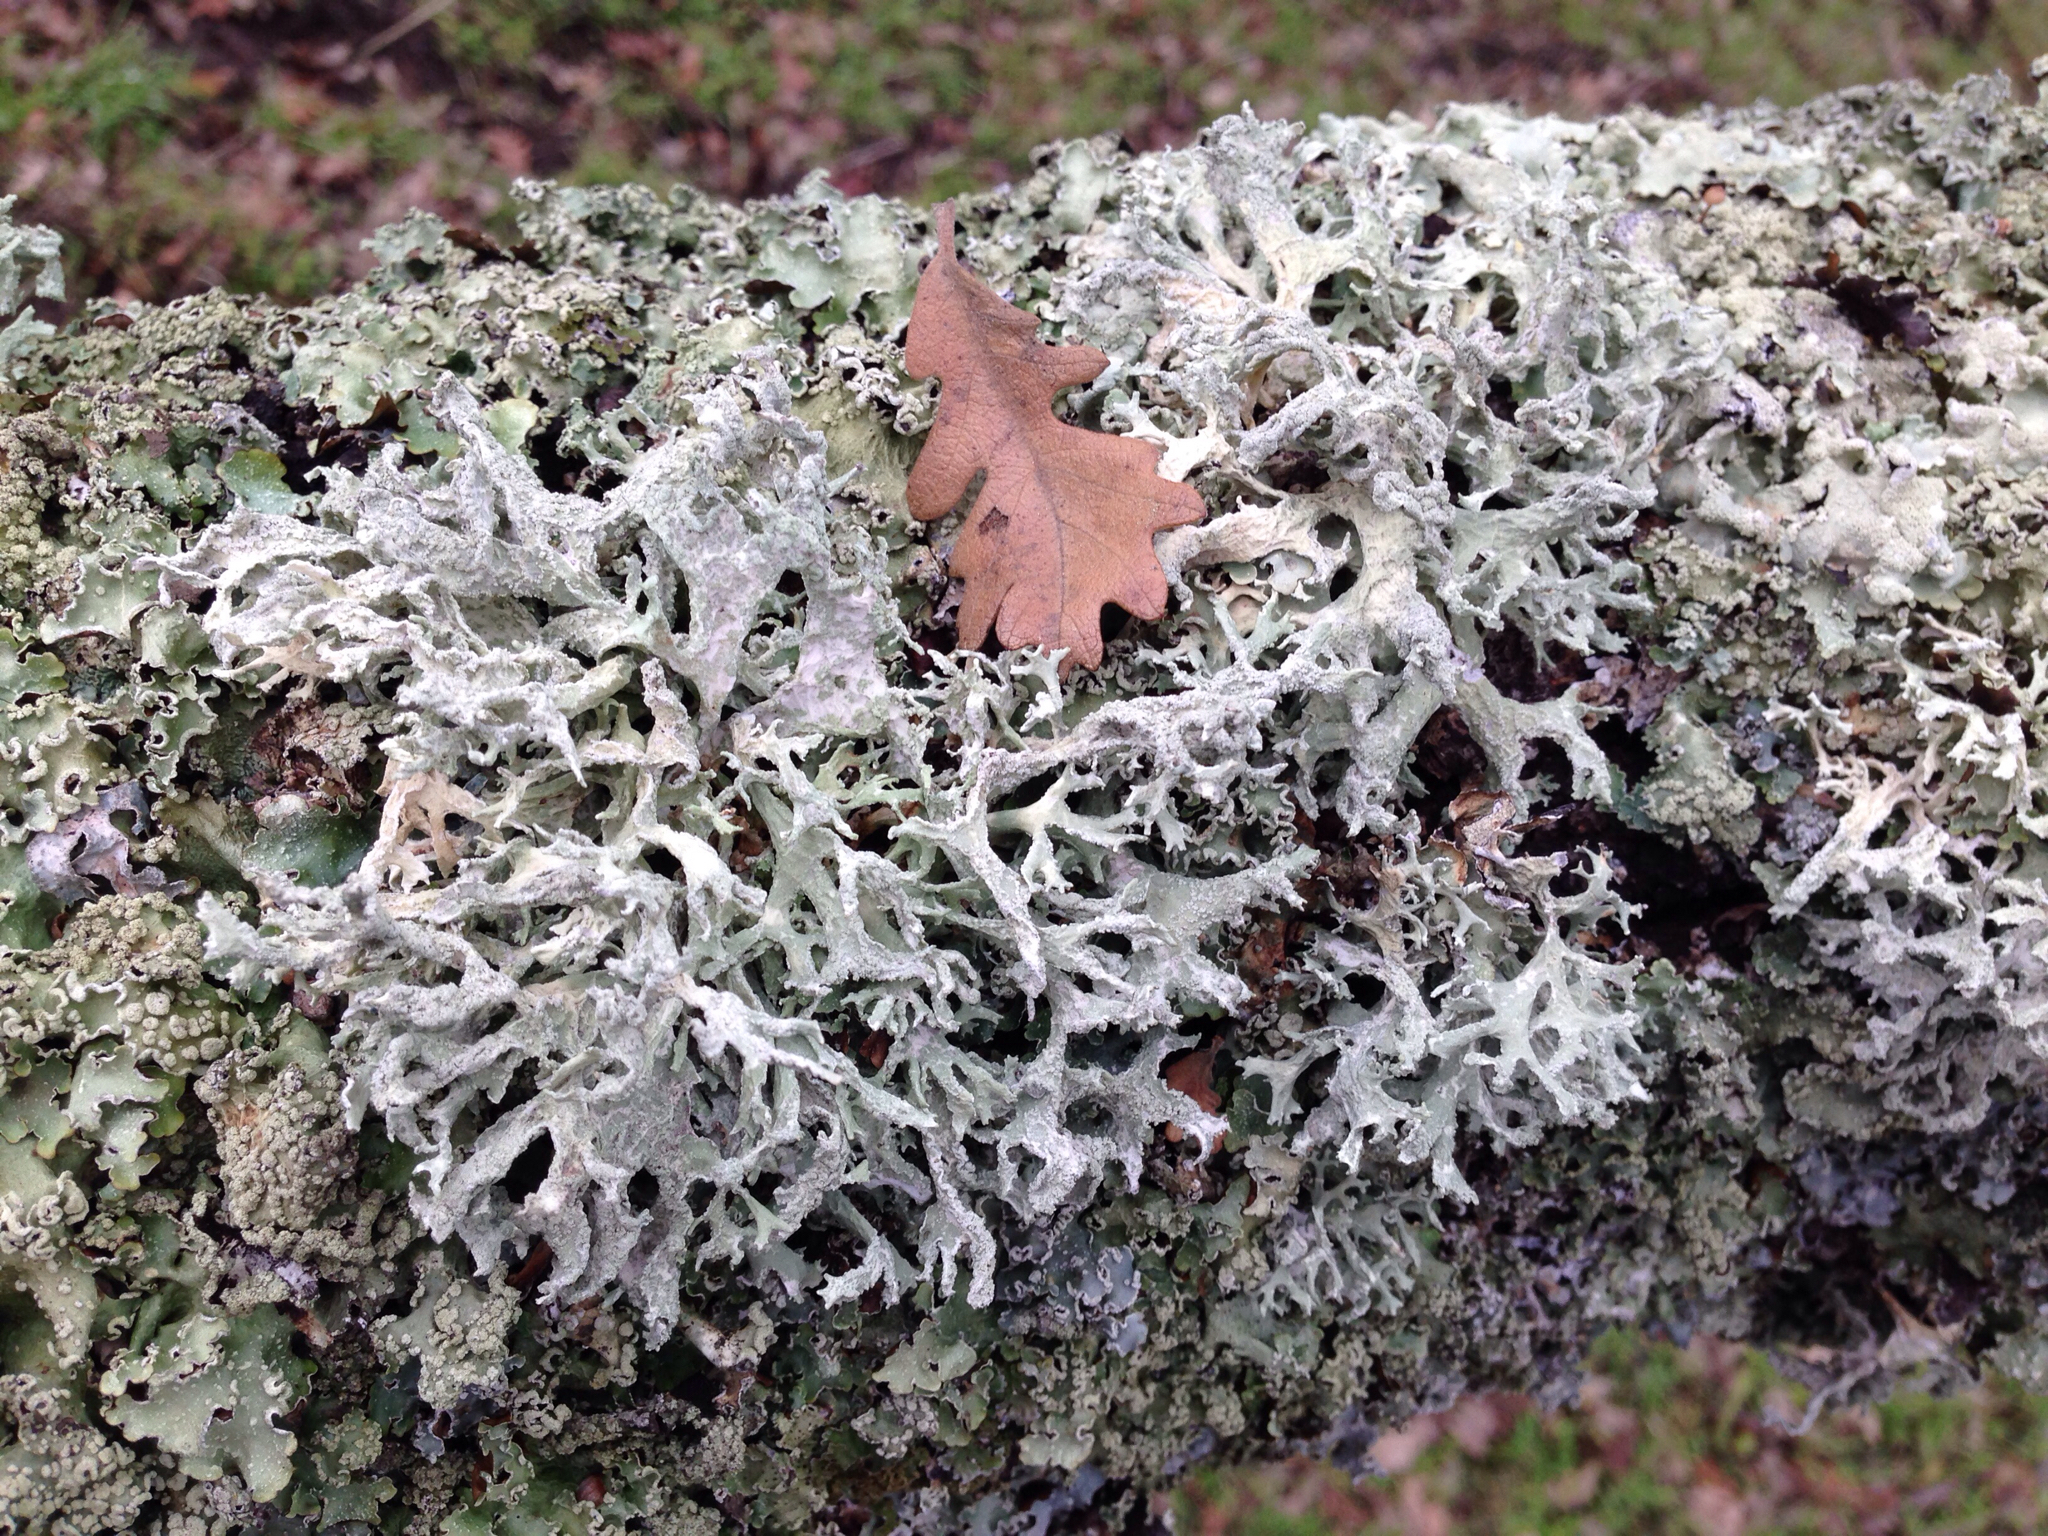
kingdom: Fungi
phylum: Ascomycota
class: Lecanoromycetes
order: Lecanorales
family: Parmeliaceae
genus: Evernia
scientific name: Evernia prunastri
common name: Oak moss
